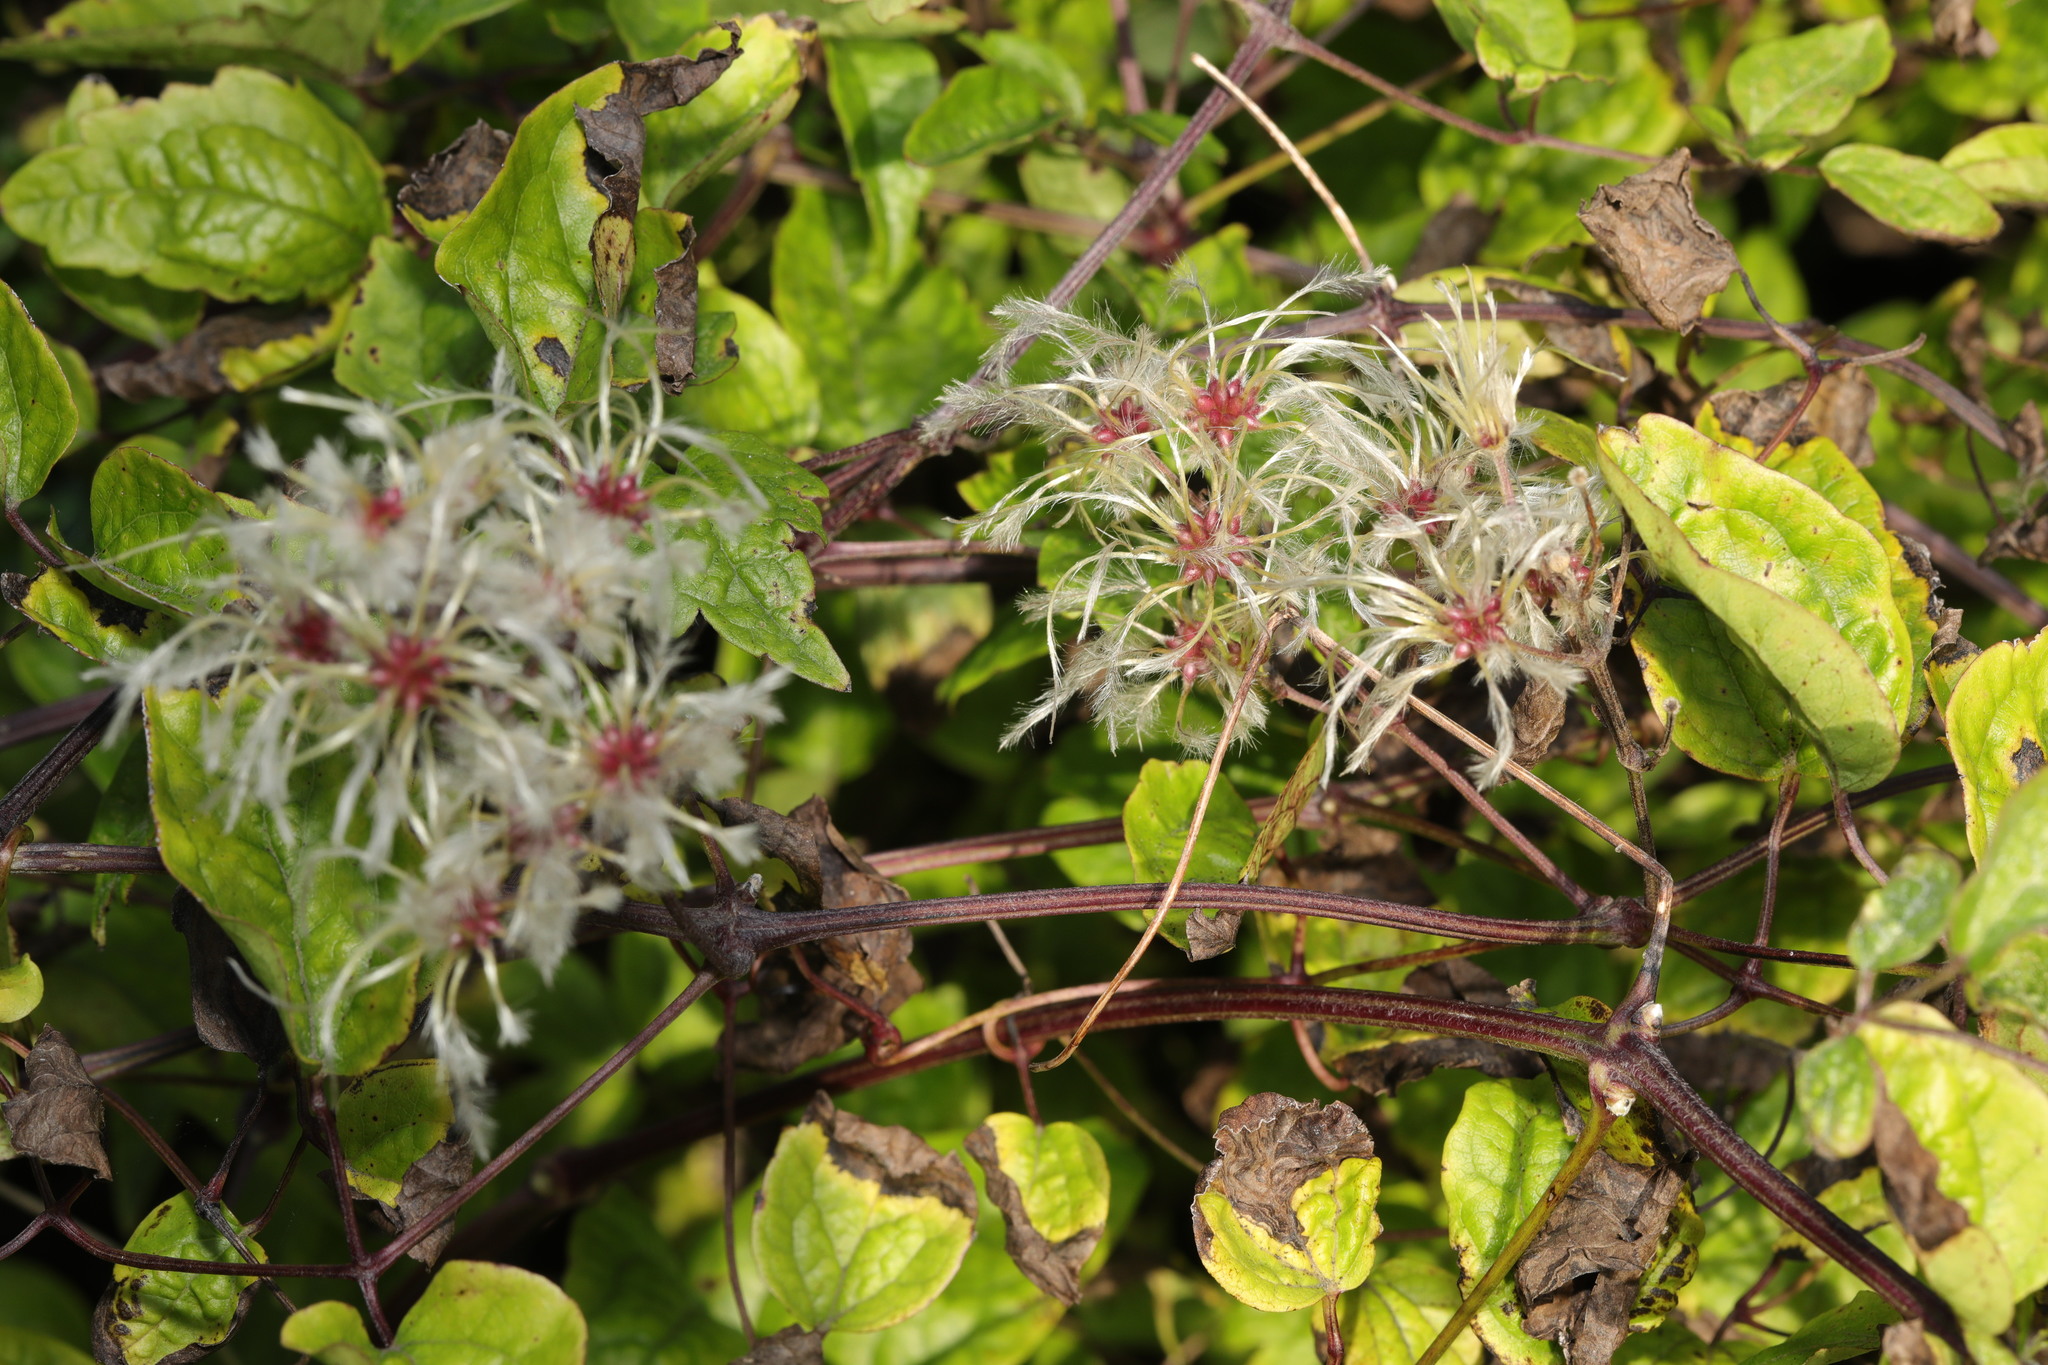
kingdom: Plantae
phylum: Tracheophyta
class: Magnoliopsida
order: Ranunculales
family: Ranunculaceae
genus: Clematis
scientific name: Clematis vitalba
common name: Evergreen clematis
